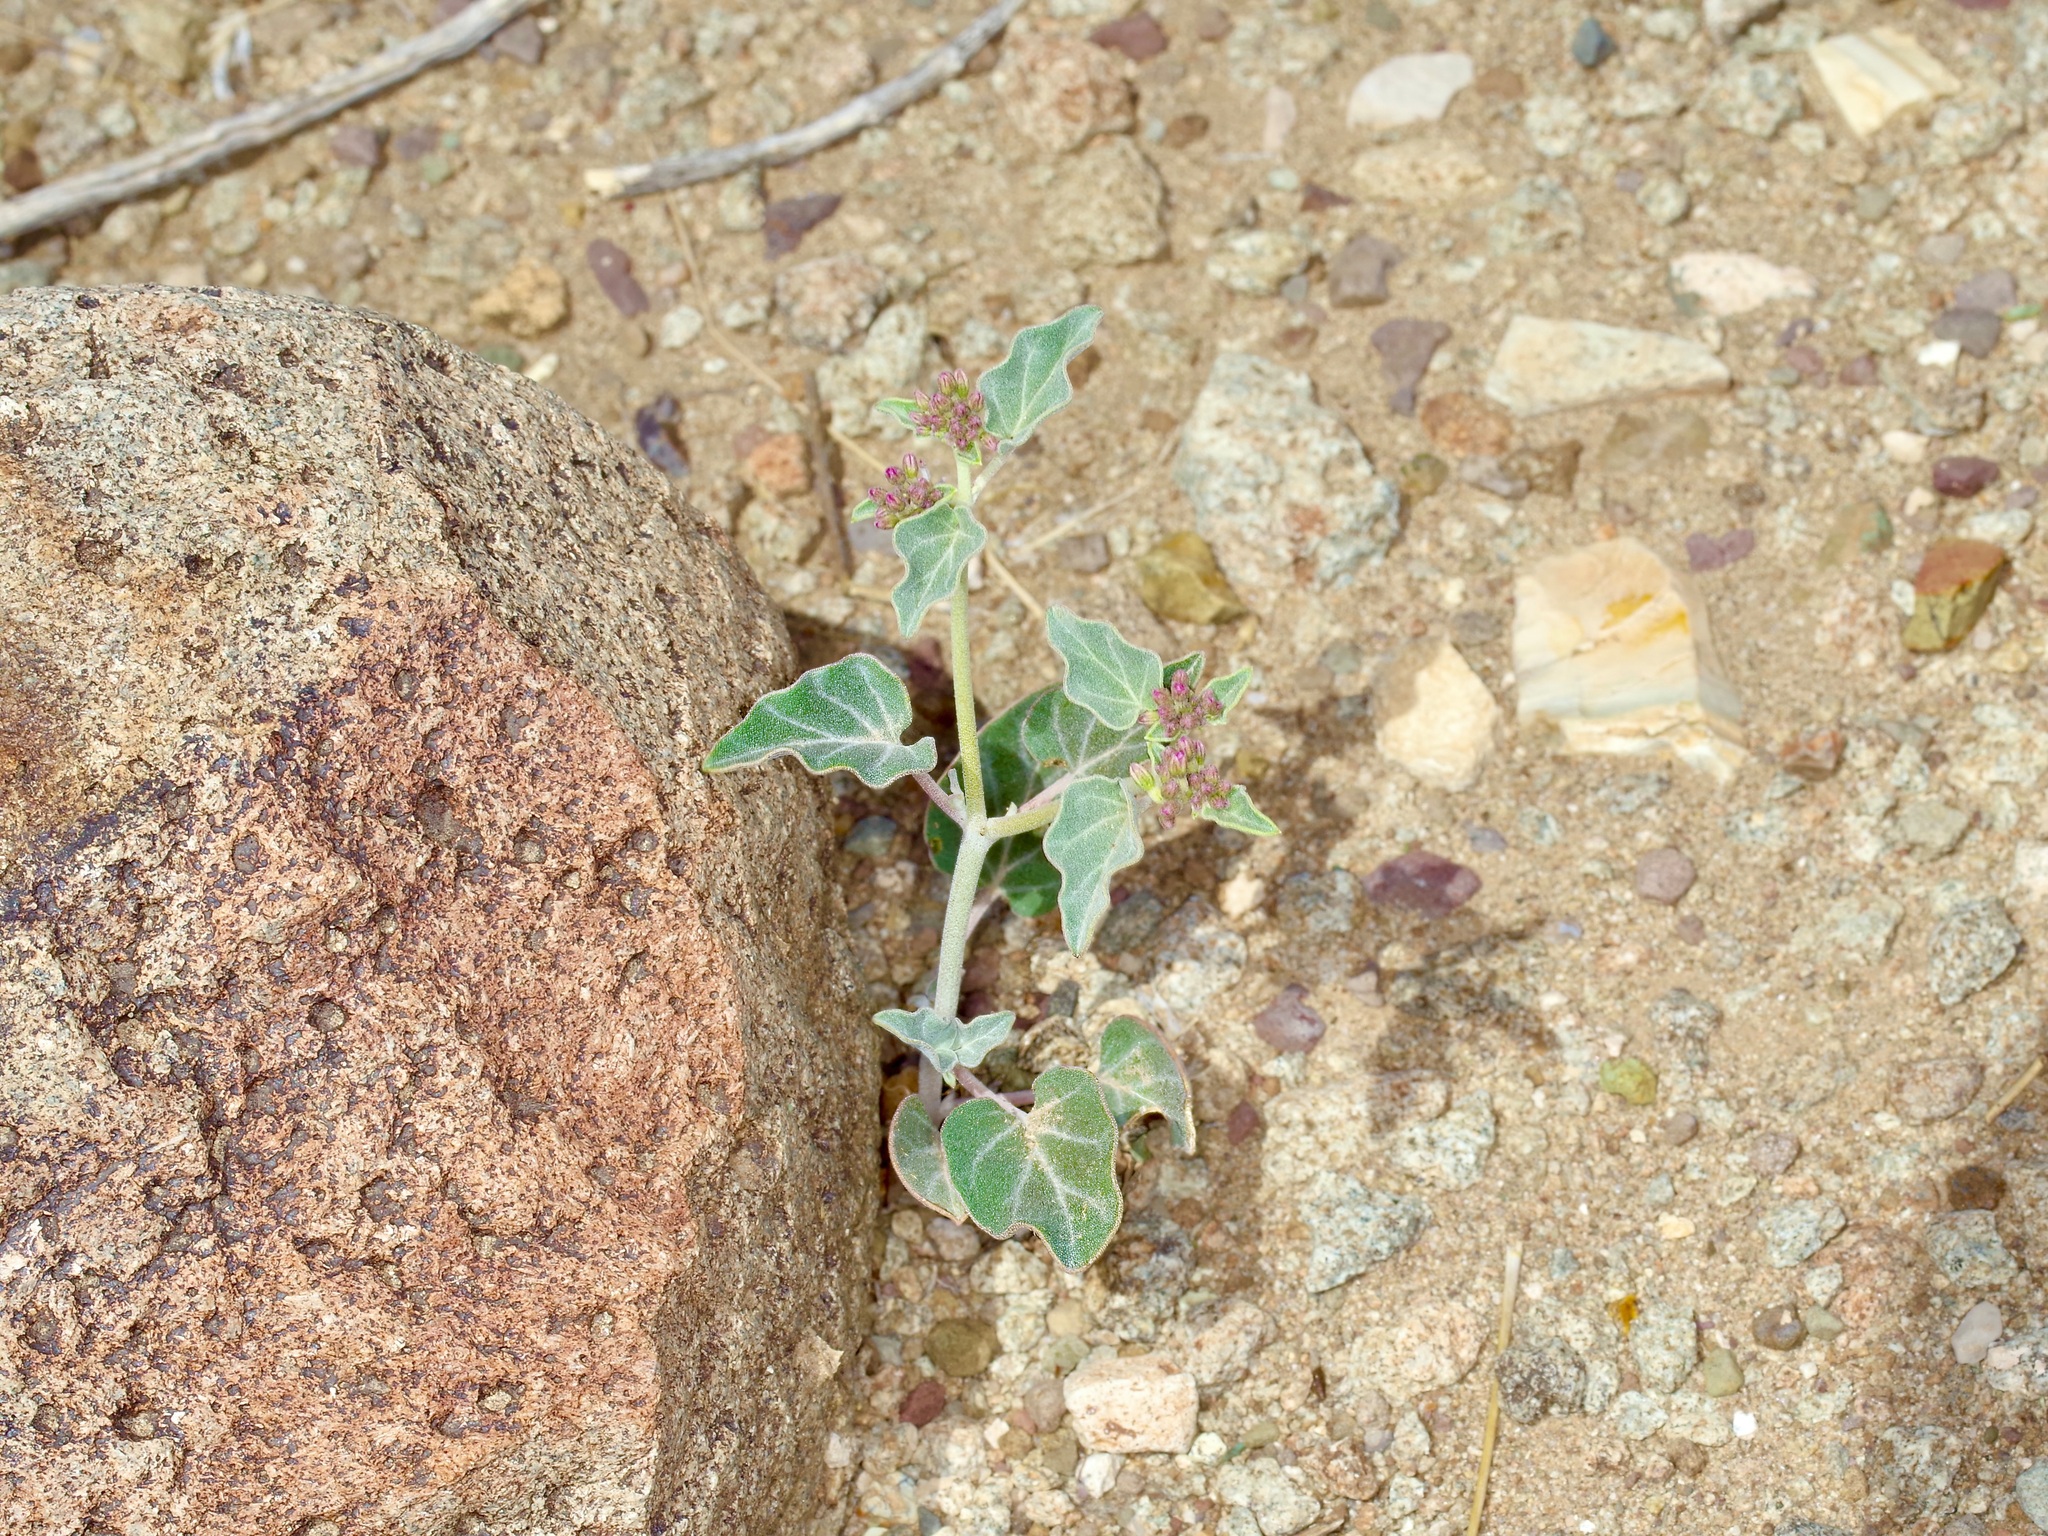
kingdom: Plantae
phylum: Tracheophyta
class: Magnoliopsida
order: Caryophyllales
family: Nyctaginaceae
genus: Acleisanthes
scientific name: Acleisanthes chenopodioides
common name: Goosefoot moonpod
